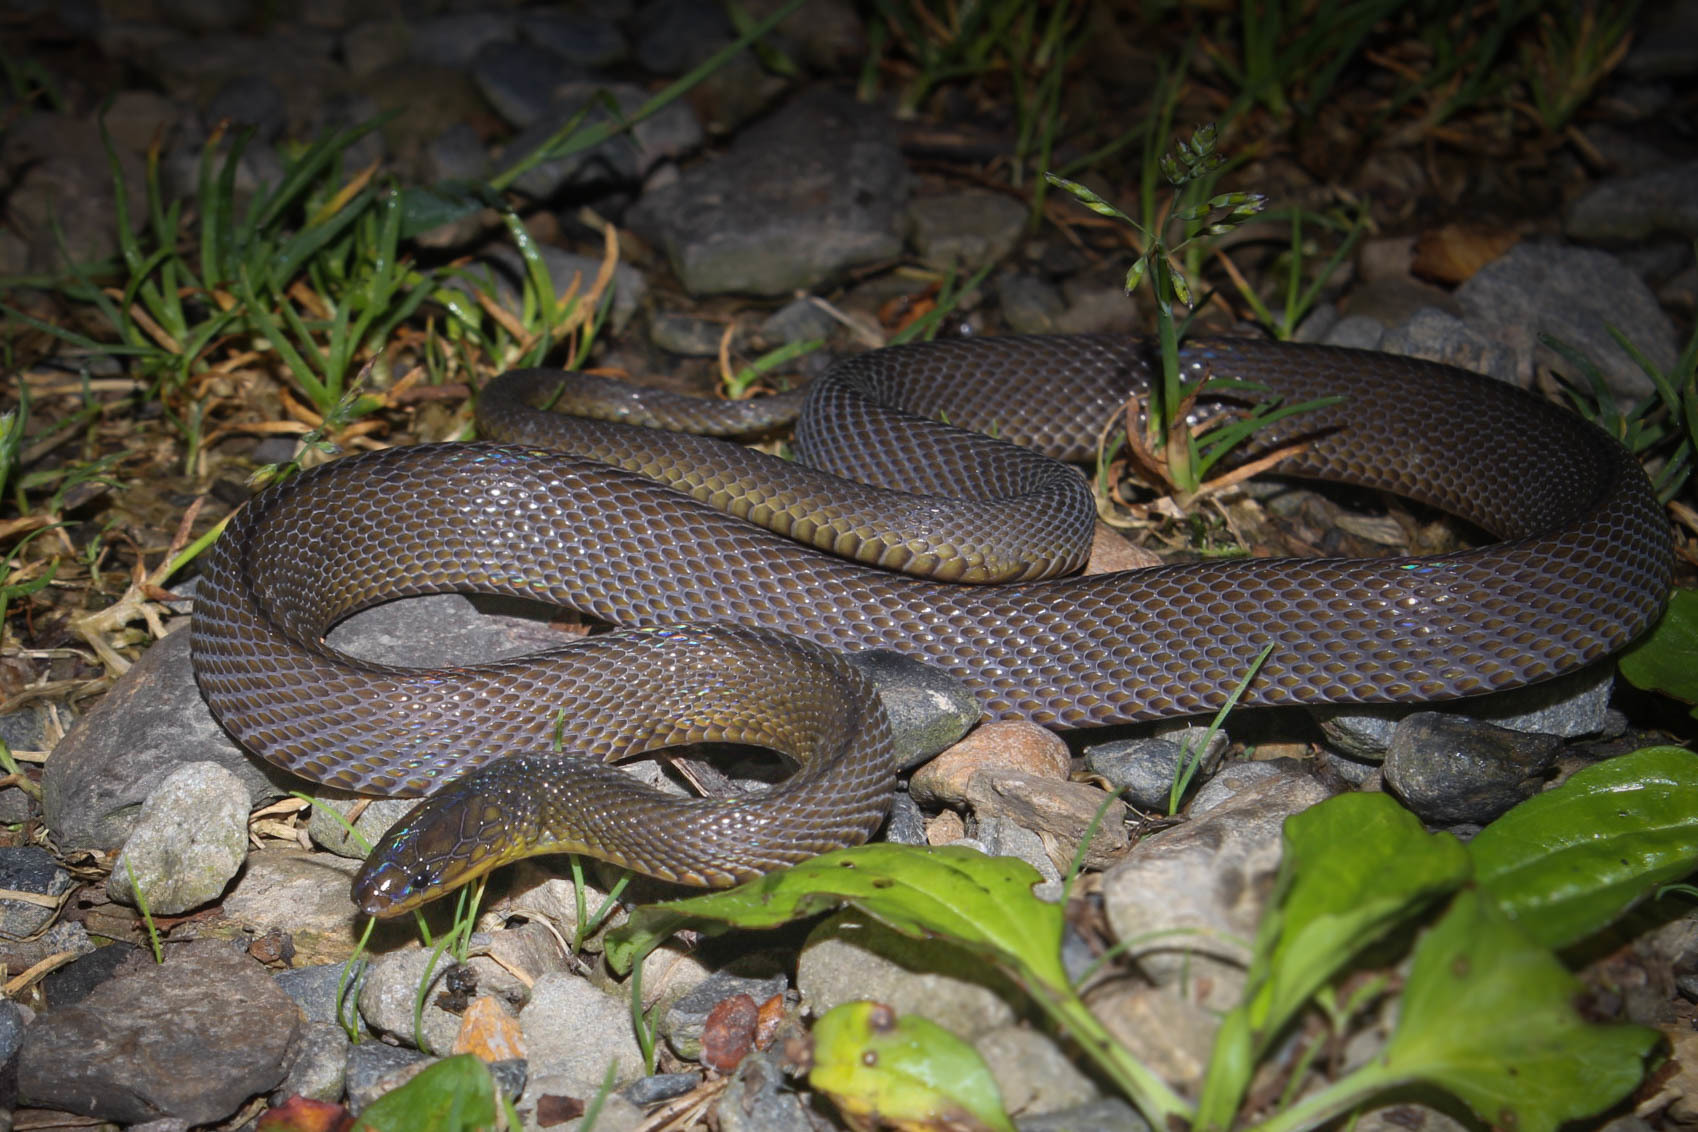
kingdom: Animalia
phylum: Chordata
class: Squamata
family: Xenodermidae
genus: Achalinus
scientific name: Achalinus niger
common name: Black odd-scaled snake
